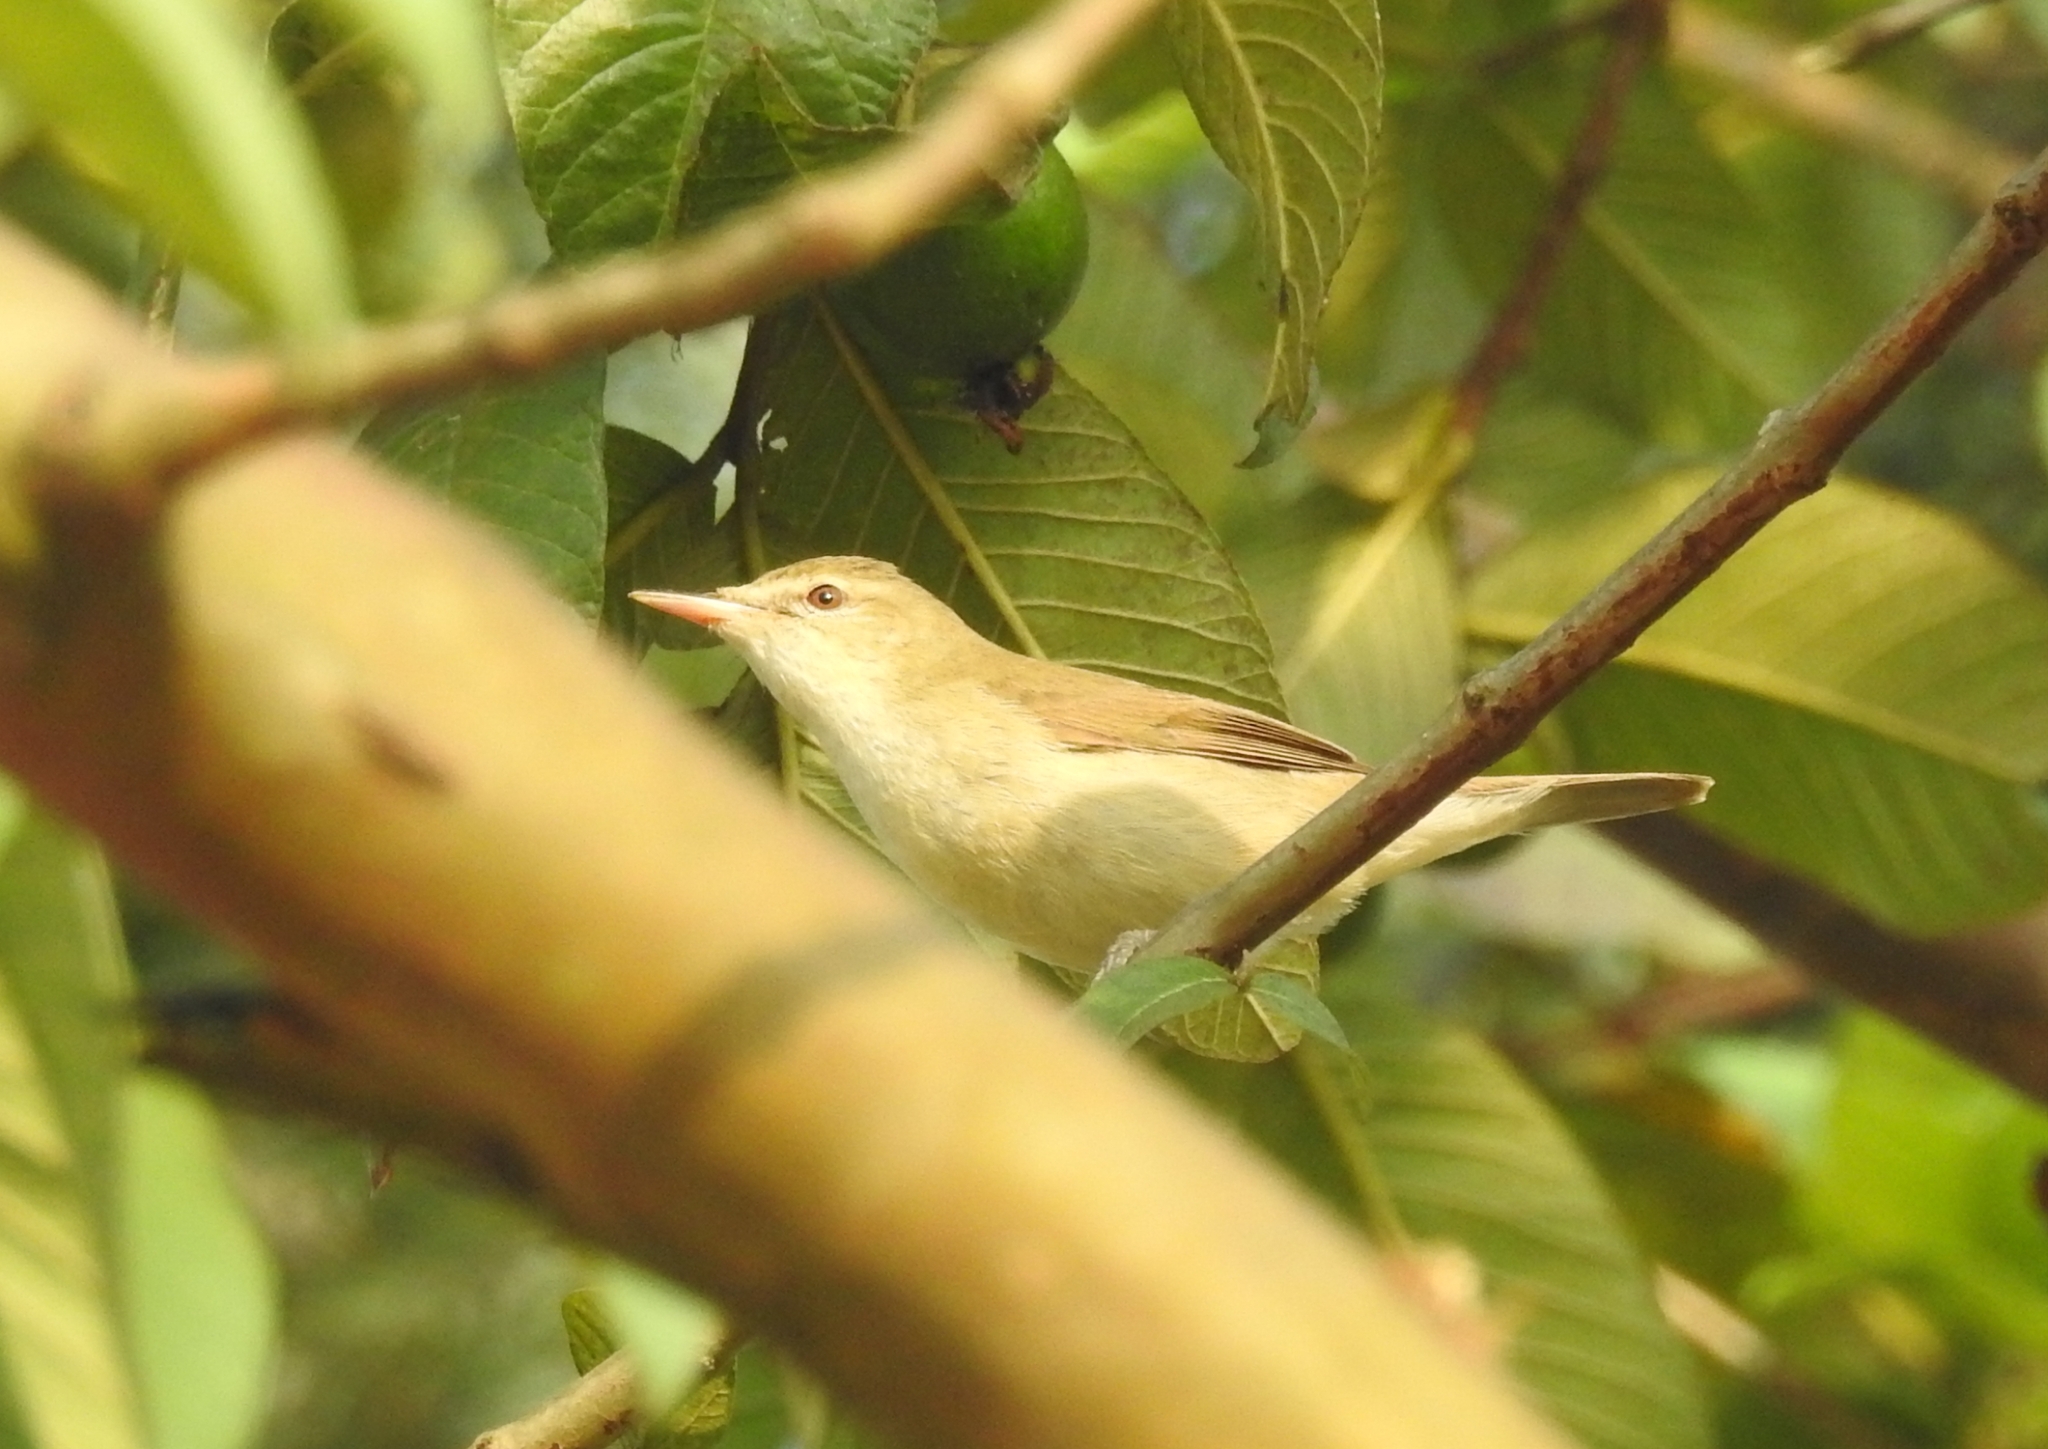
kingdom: Animalia
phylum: Chordata
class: Aves
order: Passeriformes
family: Acrocephalidae
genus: Acrocephalus
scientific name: Acrocephalus dumetorum
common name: Blyth's reed warbler
